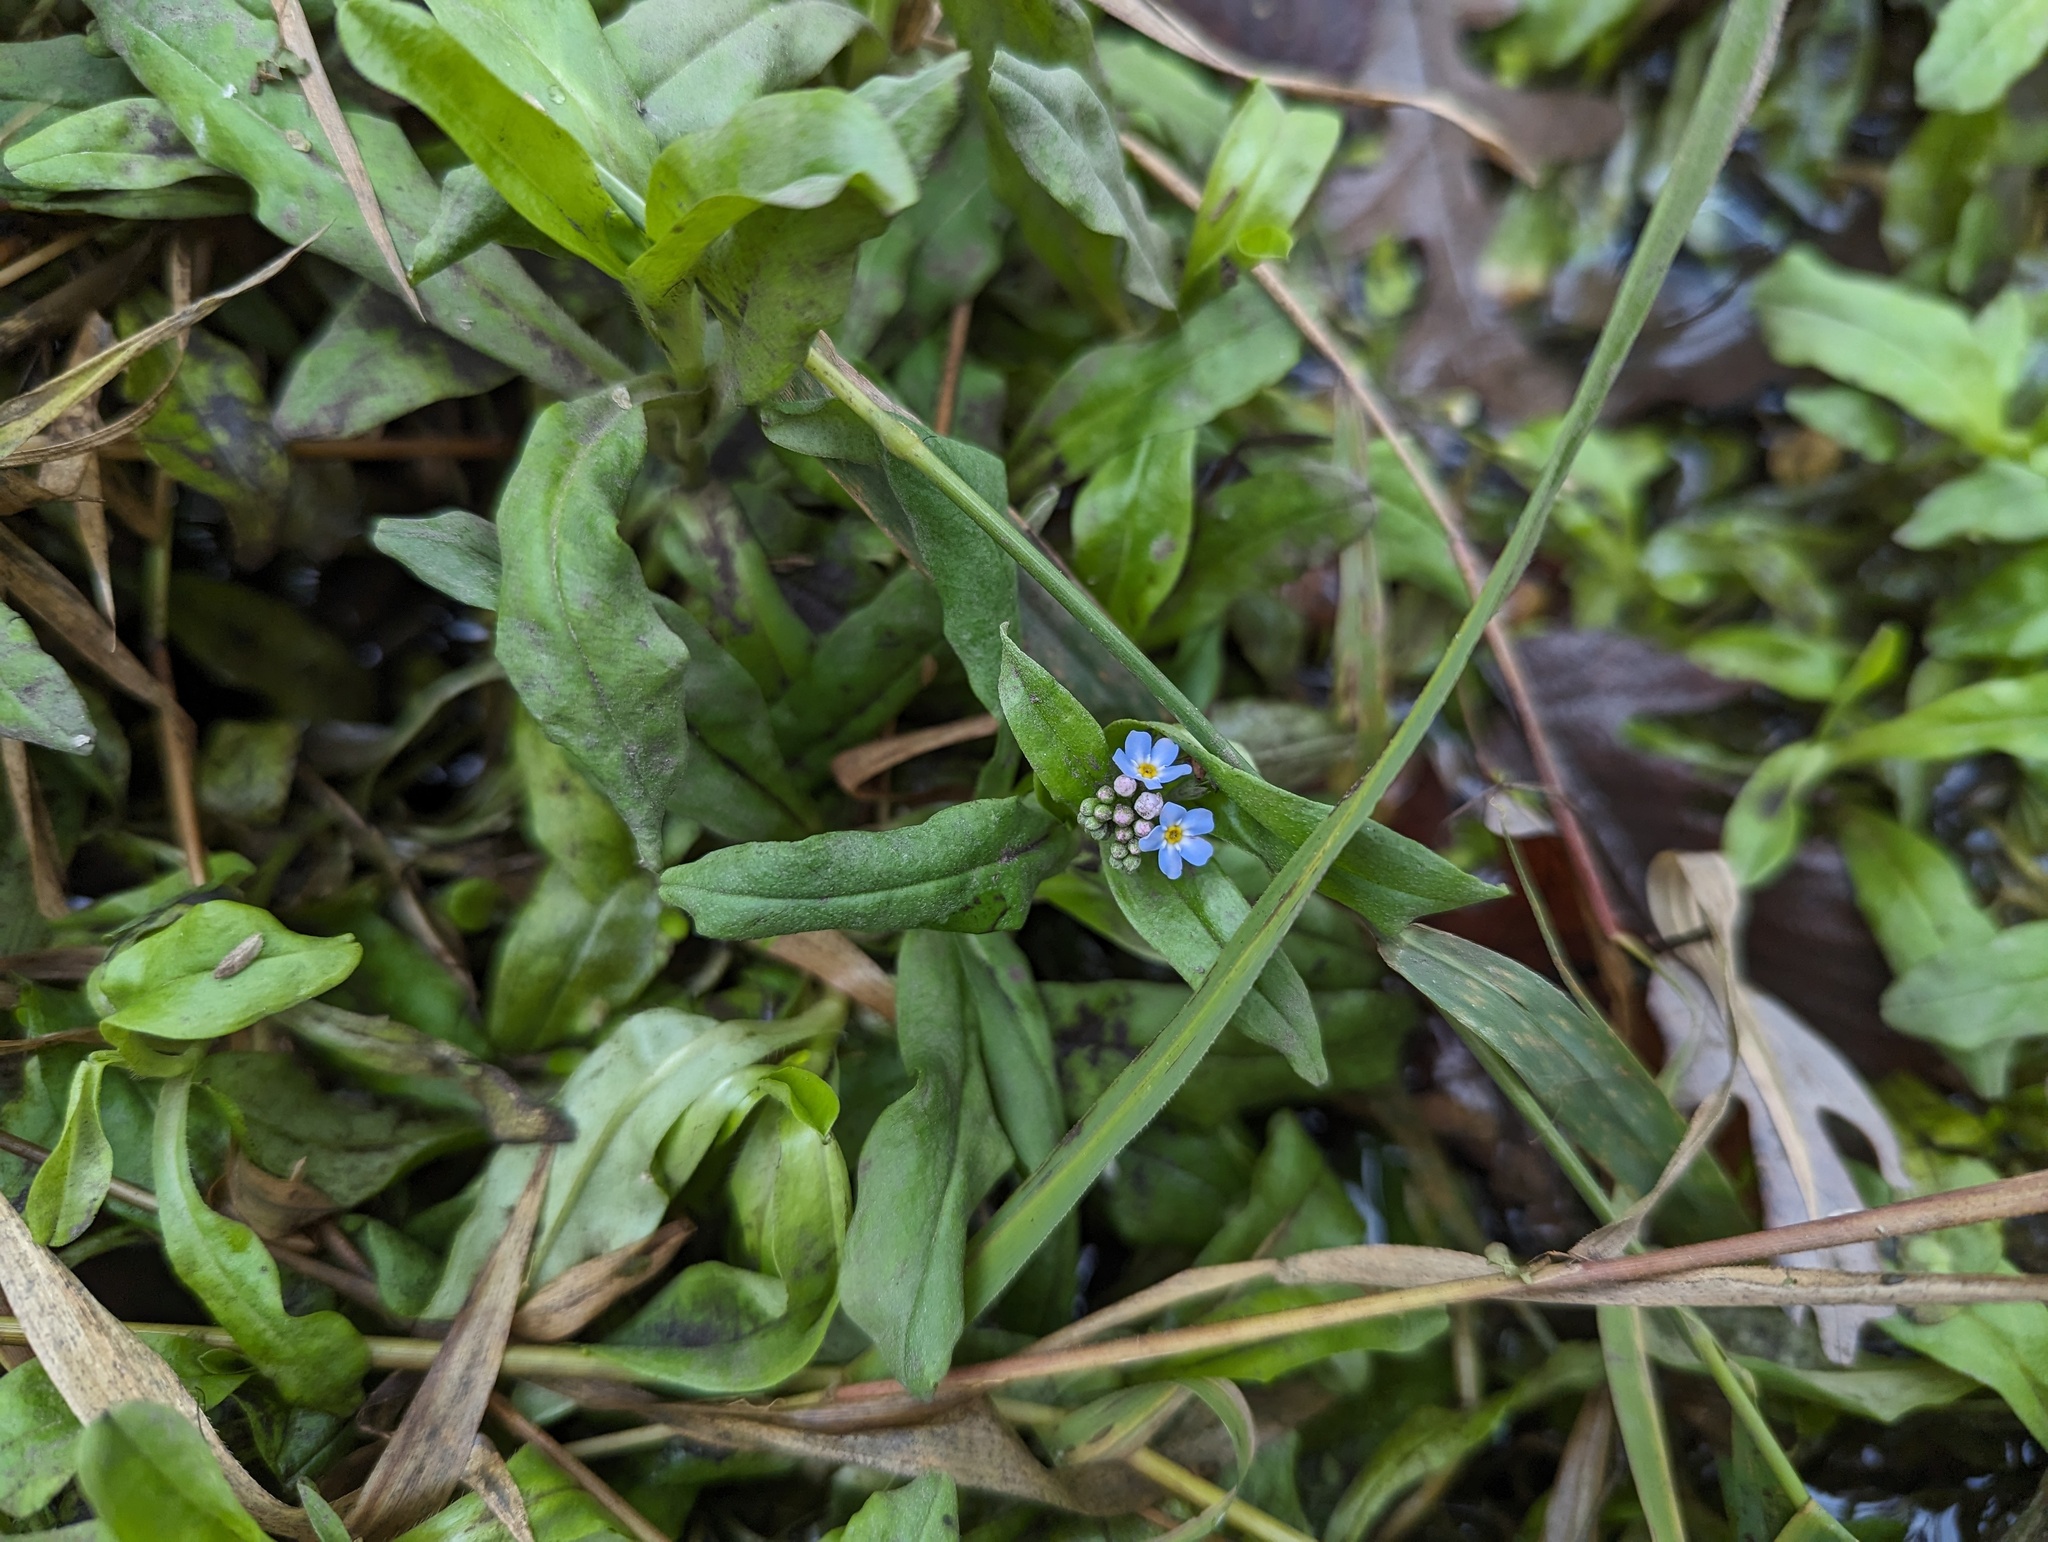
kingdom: Plantae
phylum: Tracheophyta
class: Magnoliopsida
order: Boraginales
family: Boraginaceae
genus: Myosotis
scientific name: Myosotis scorpioides
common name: Water forget-me-not
